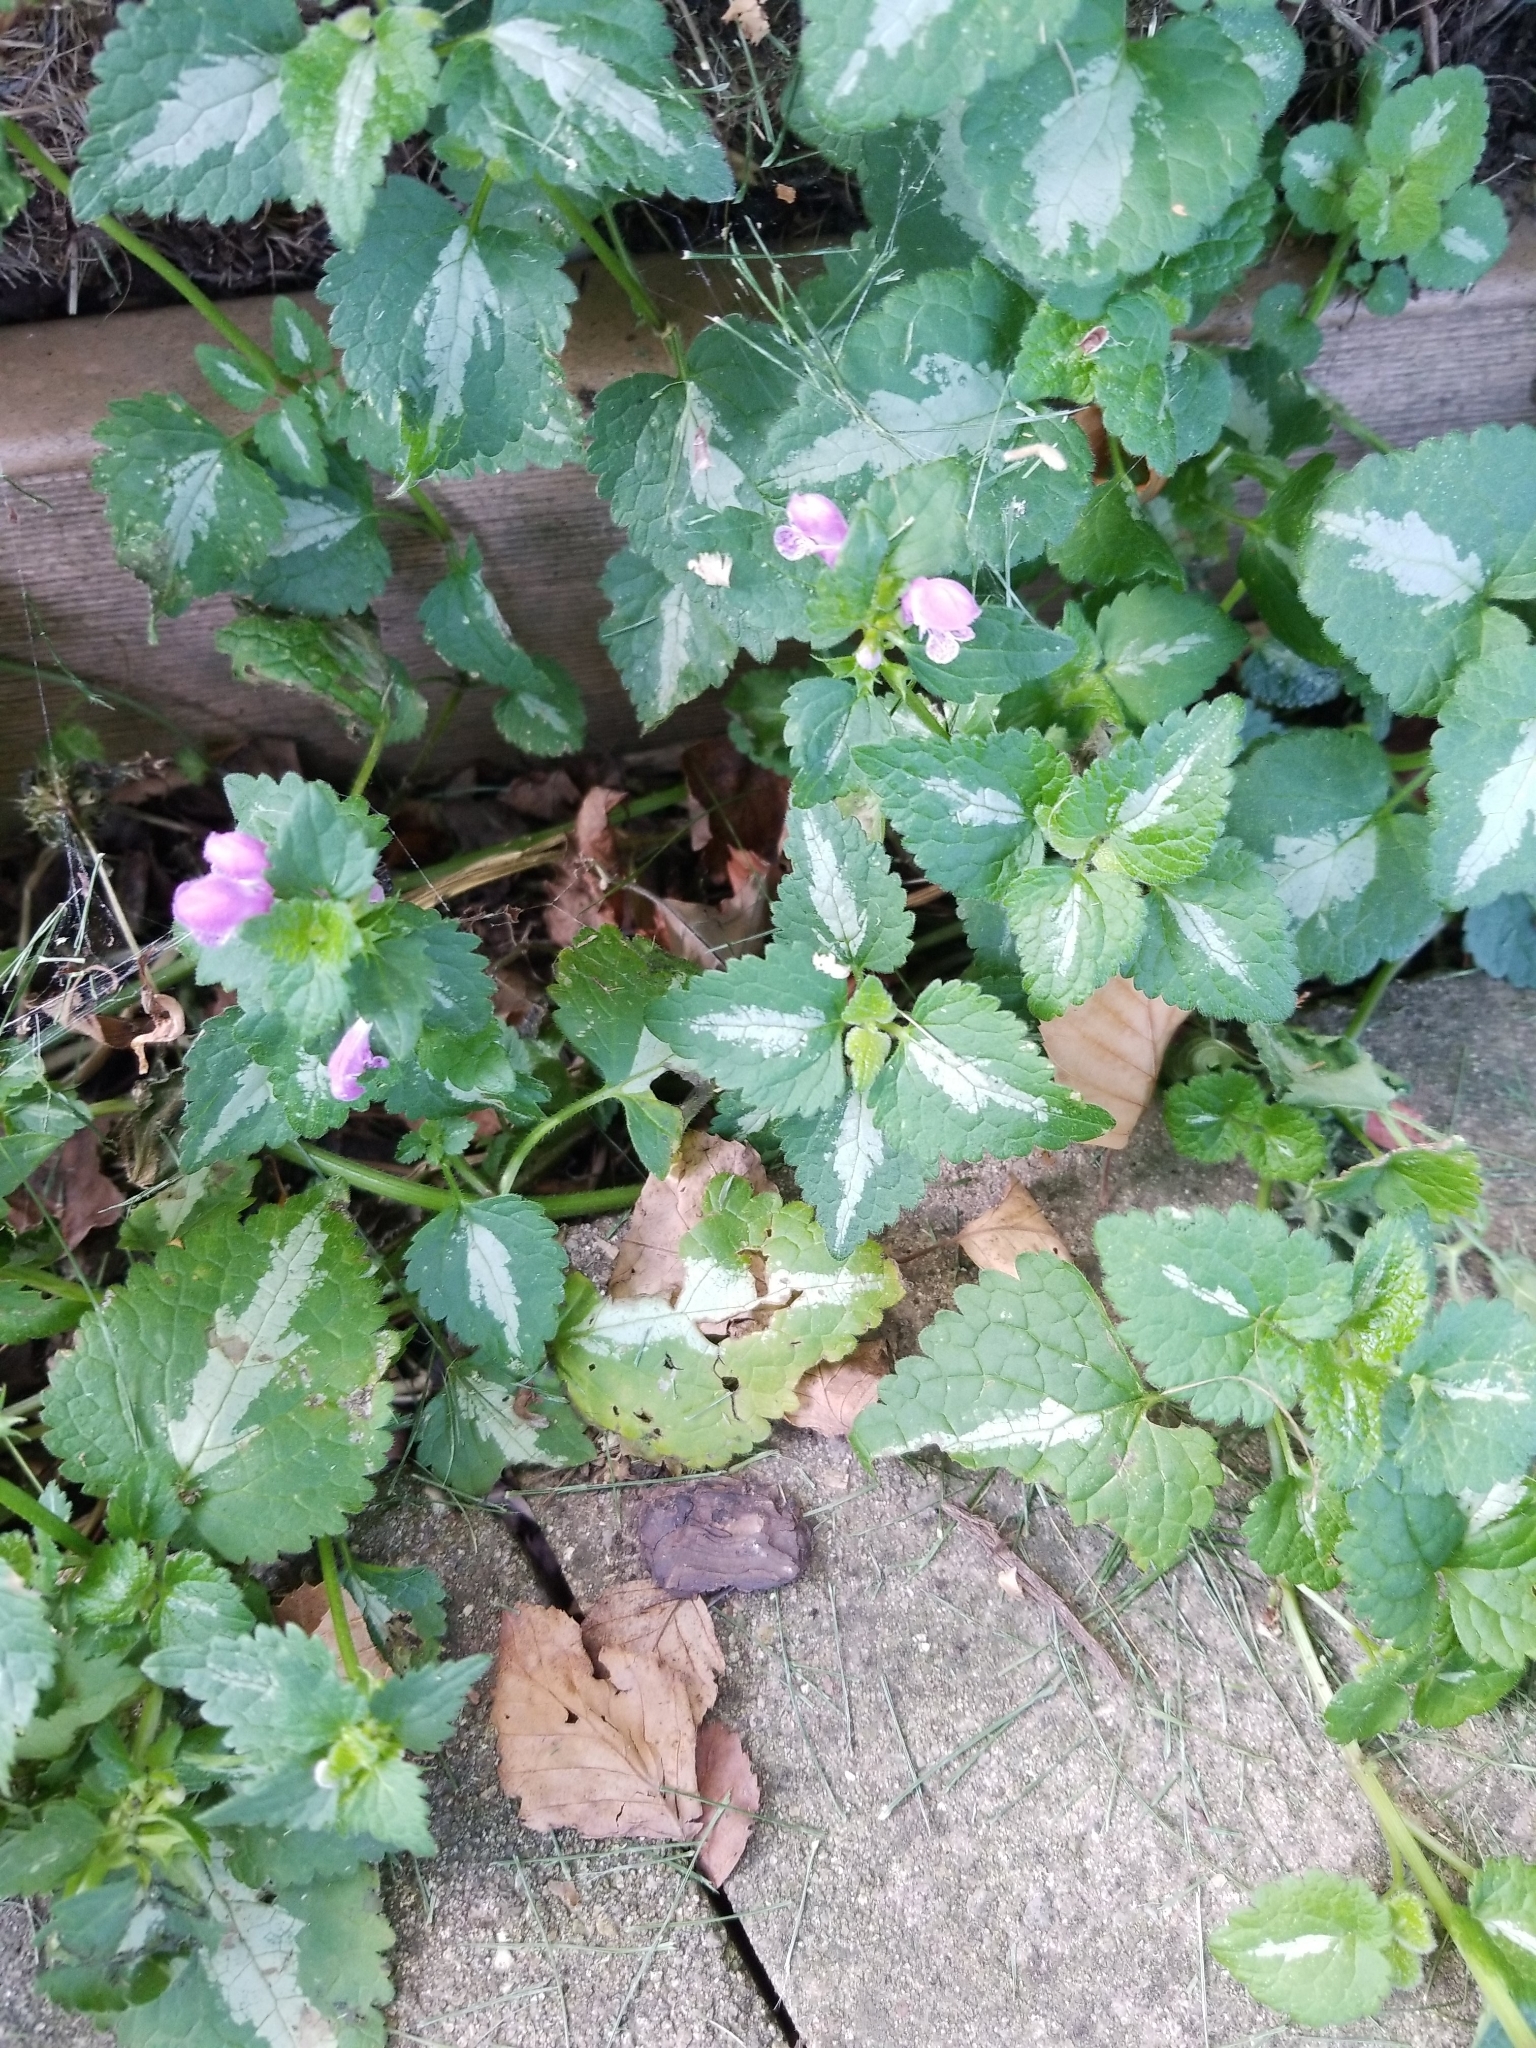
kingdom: Plantae
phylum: Tracheophyta
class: Magnoliopsida
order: Lamiales
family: Lamiaceae
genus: Lamium
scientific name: Lamium maculatum
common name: Spotted dead-nettle
